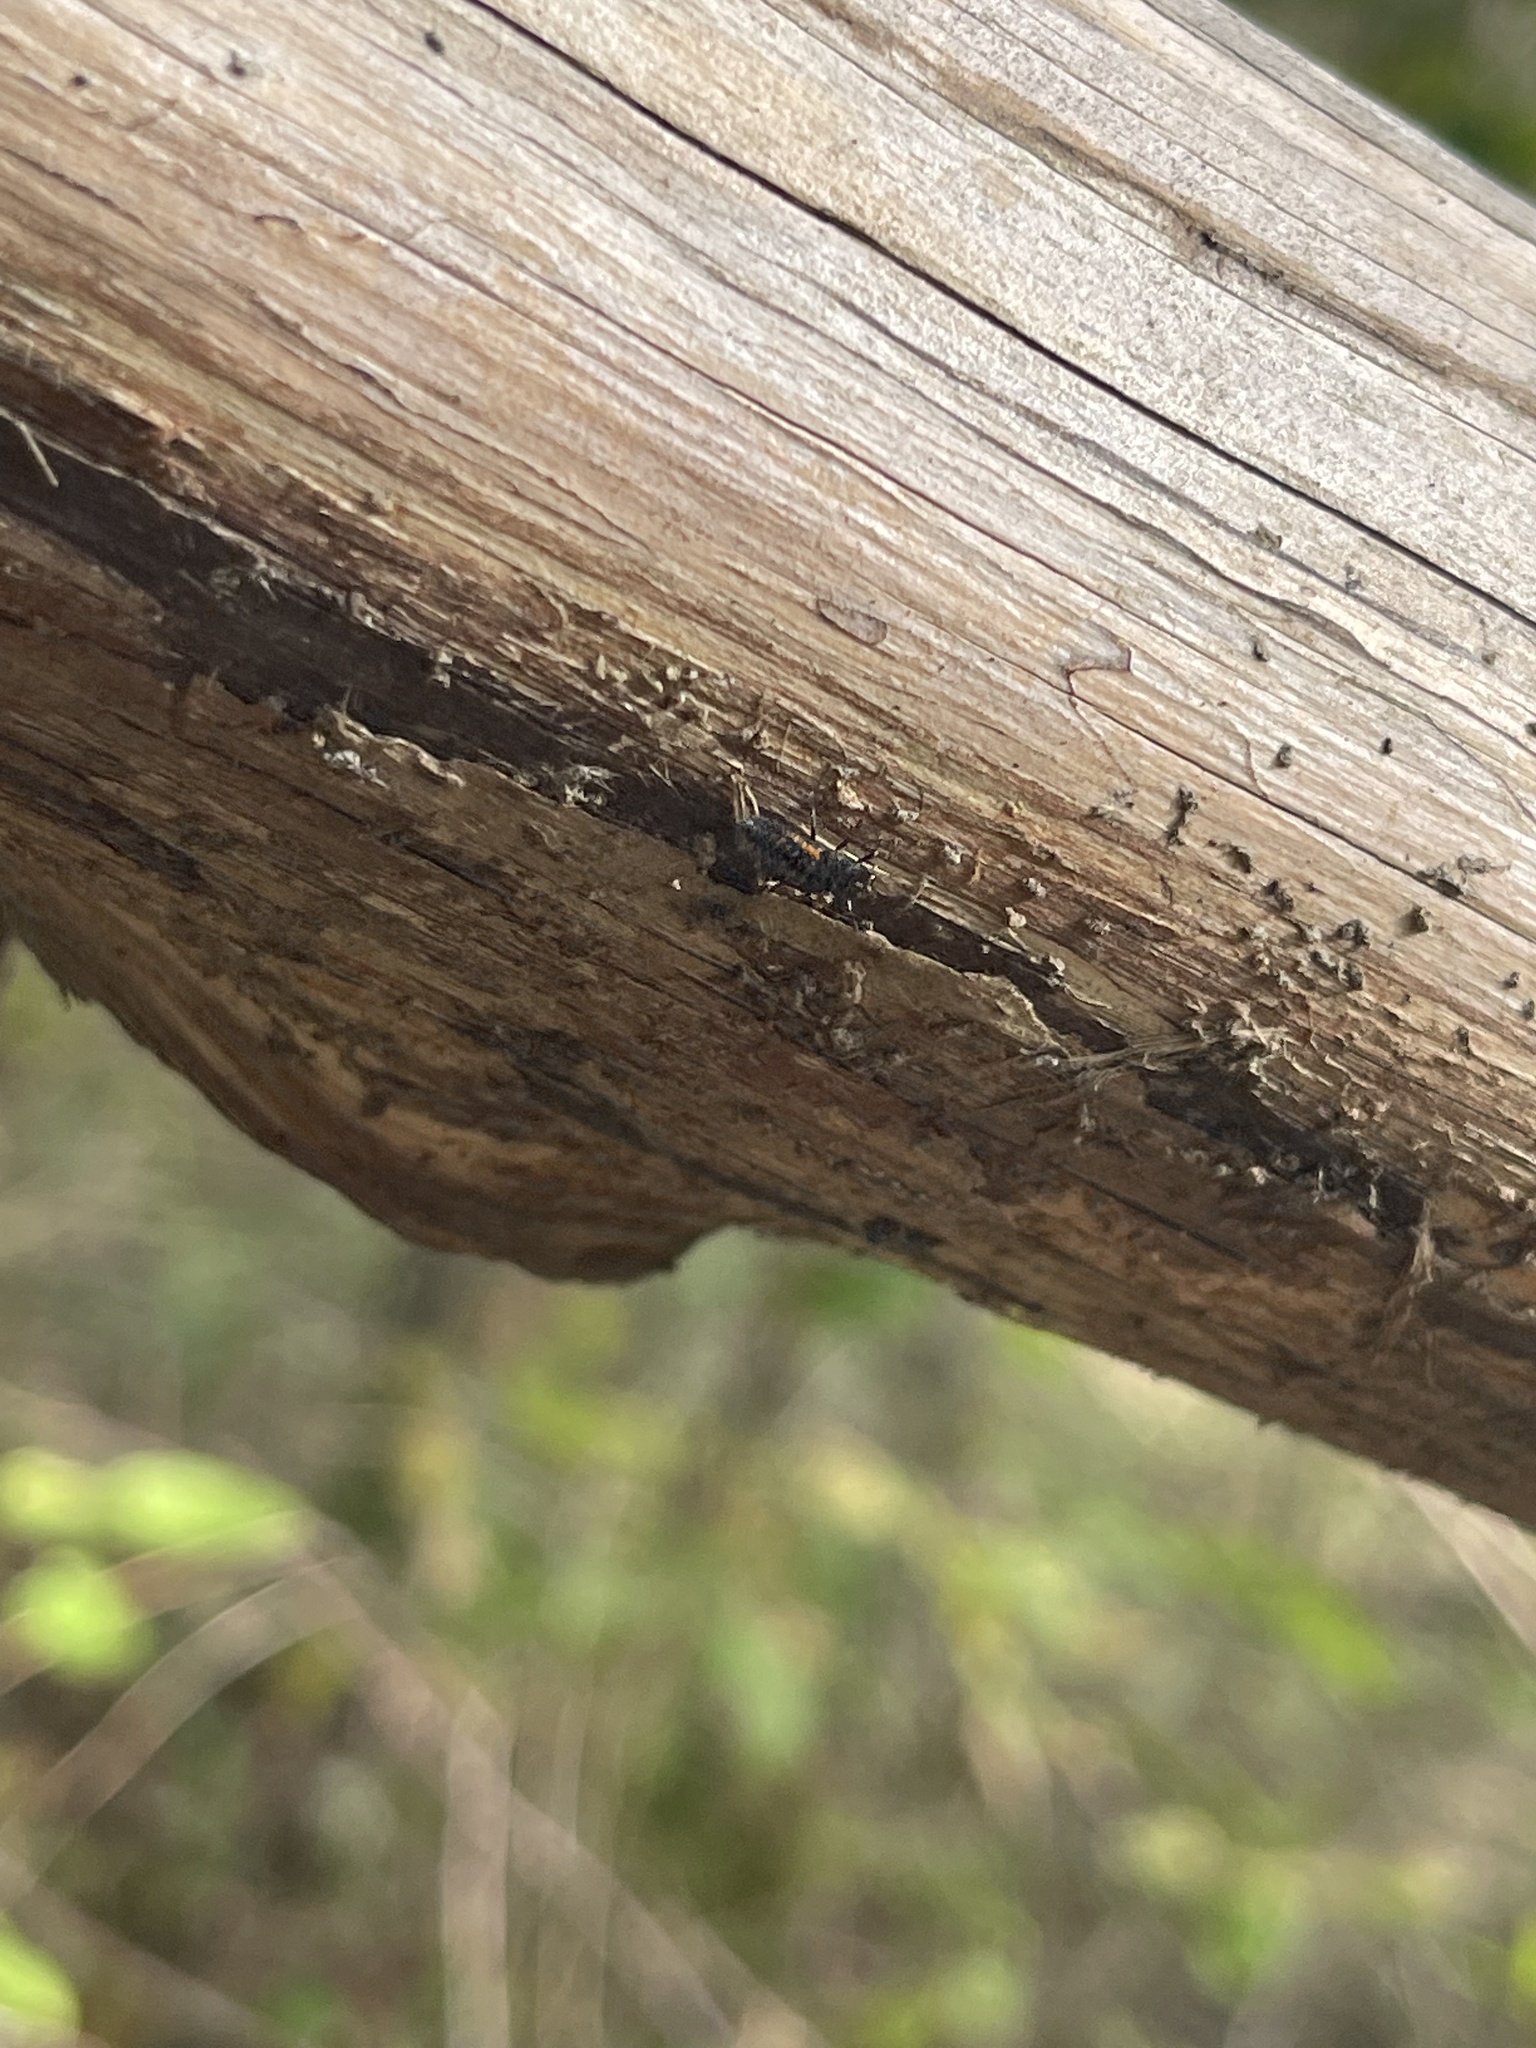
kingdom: Animalia
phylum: Arthropoda
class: Insecta
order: Coleoptera
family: Coccinellidae
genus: Harmonia
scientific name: Harmonia axyridis
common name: Harlequin ladybird
